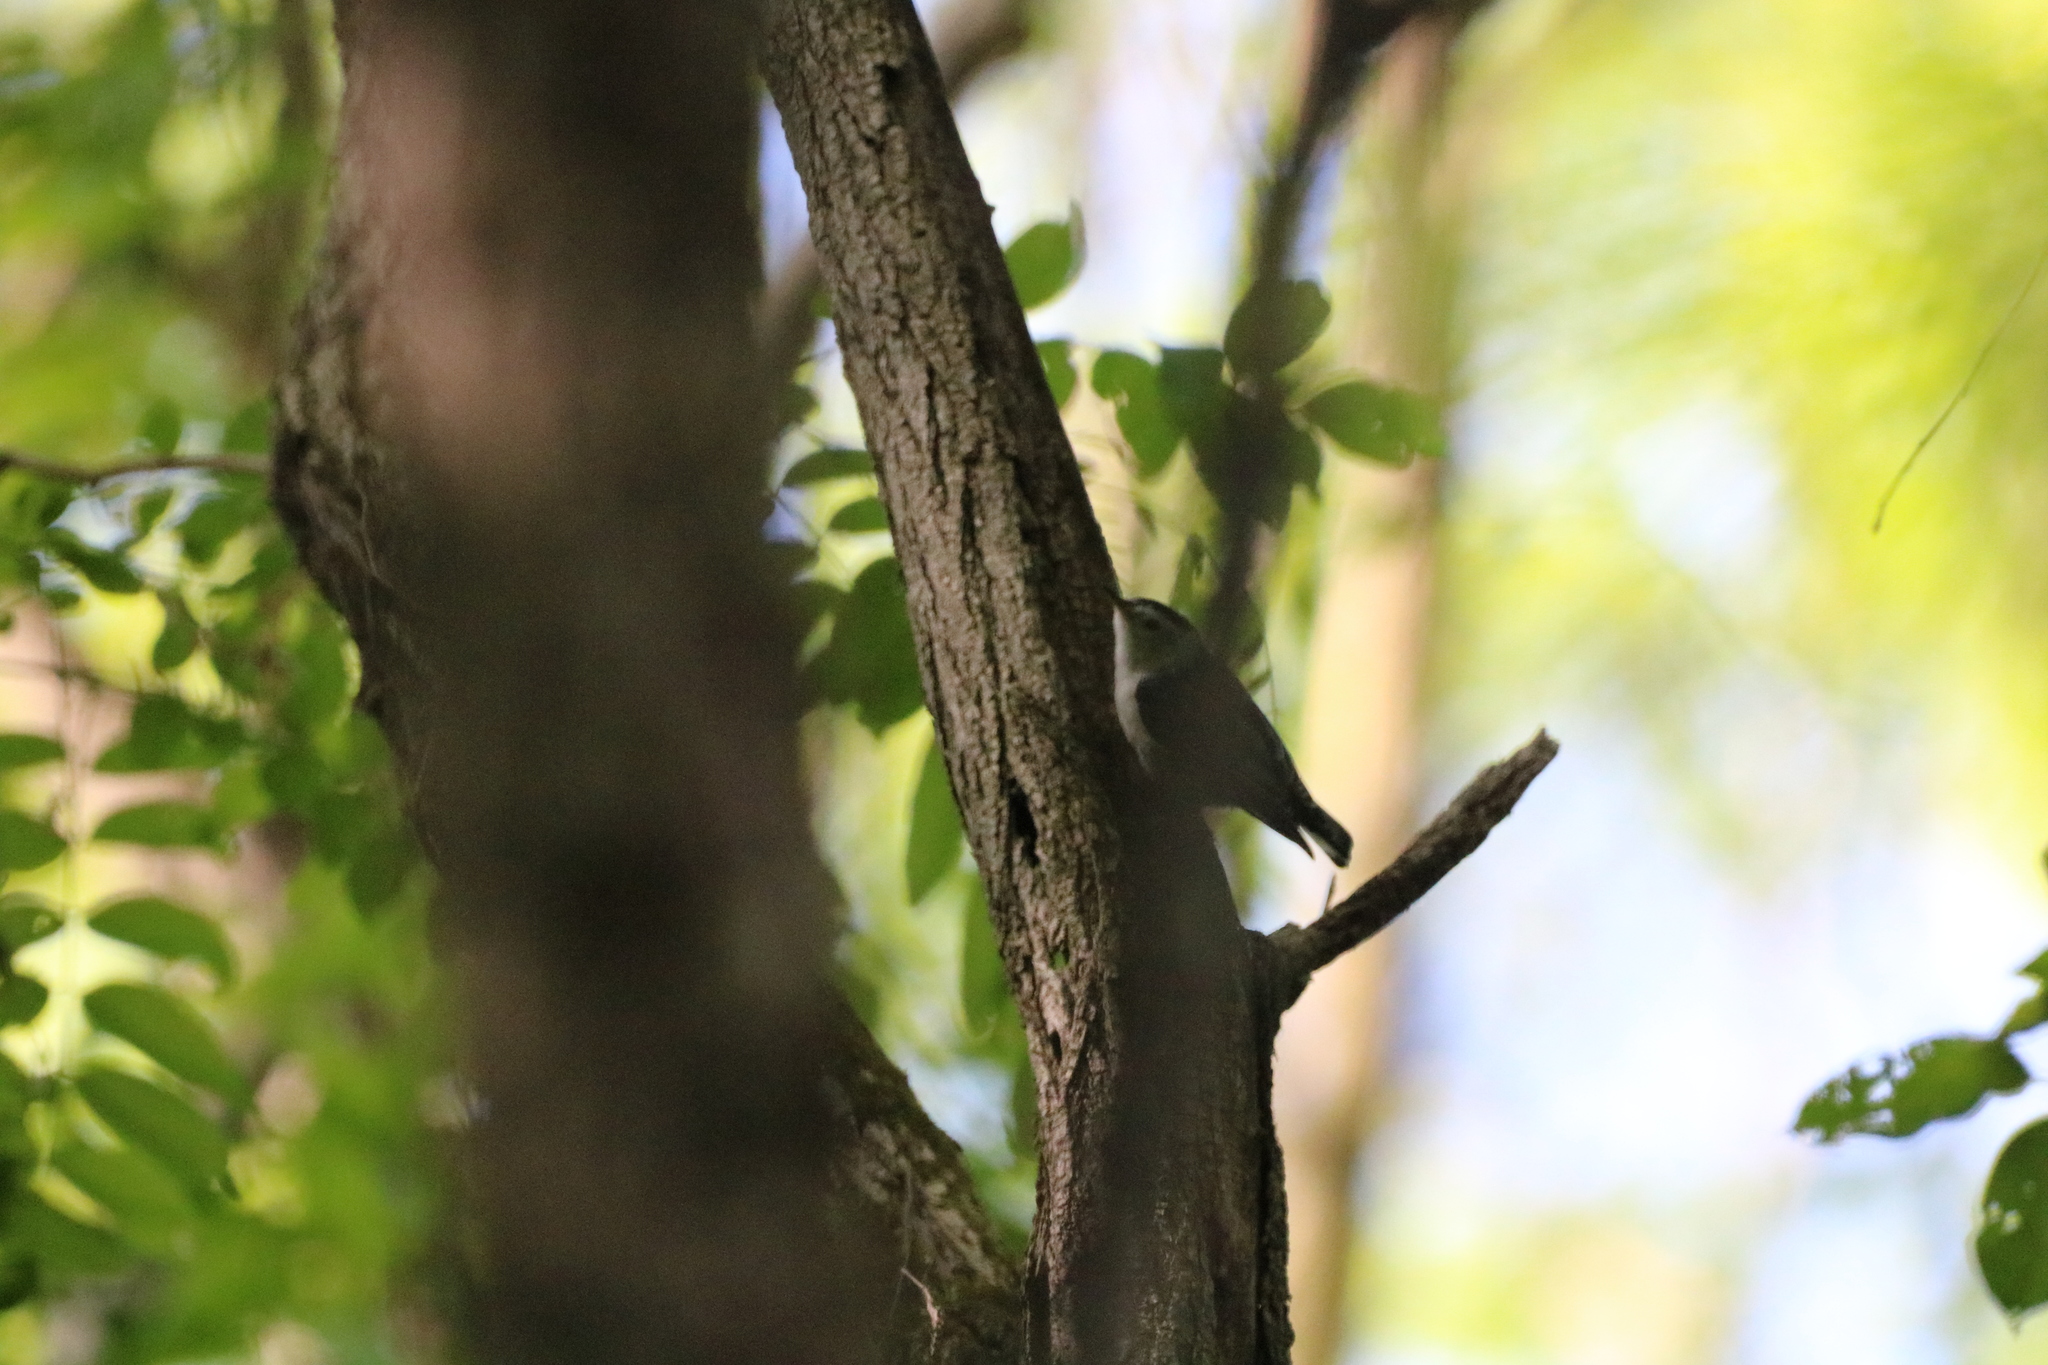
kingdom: Animalia
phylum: Chordata
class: Aves
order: Passeriformes
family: Sittidae
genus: Sitta
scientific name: Sitta carolinensis
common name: White-breasted nuthatch
